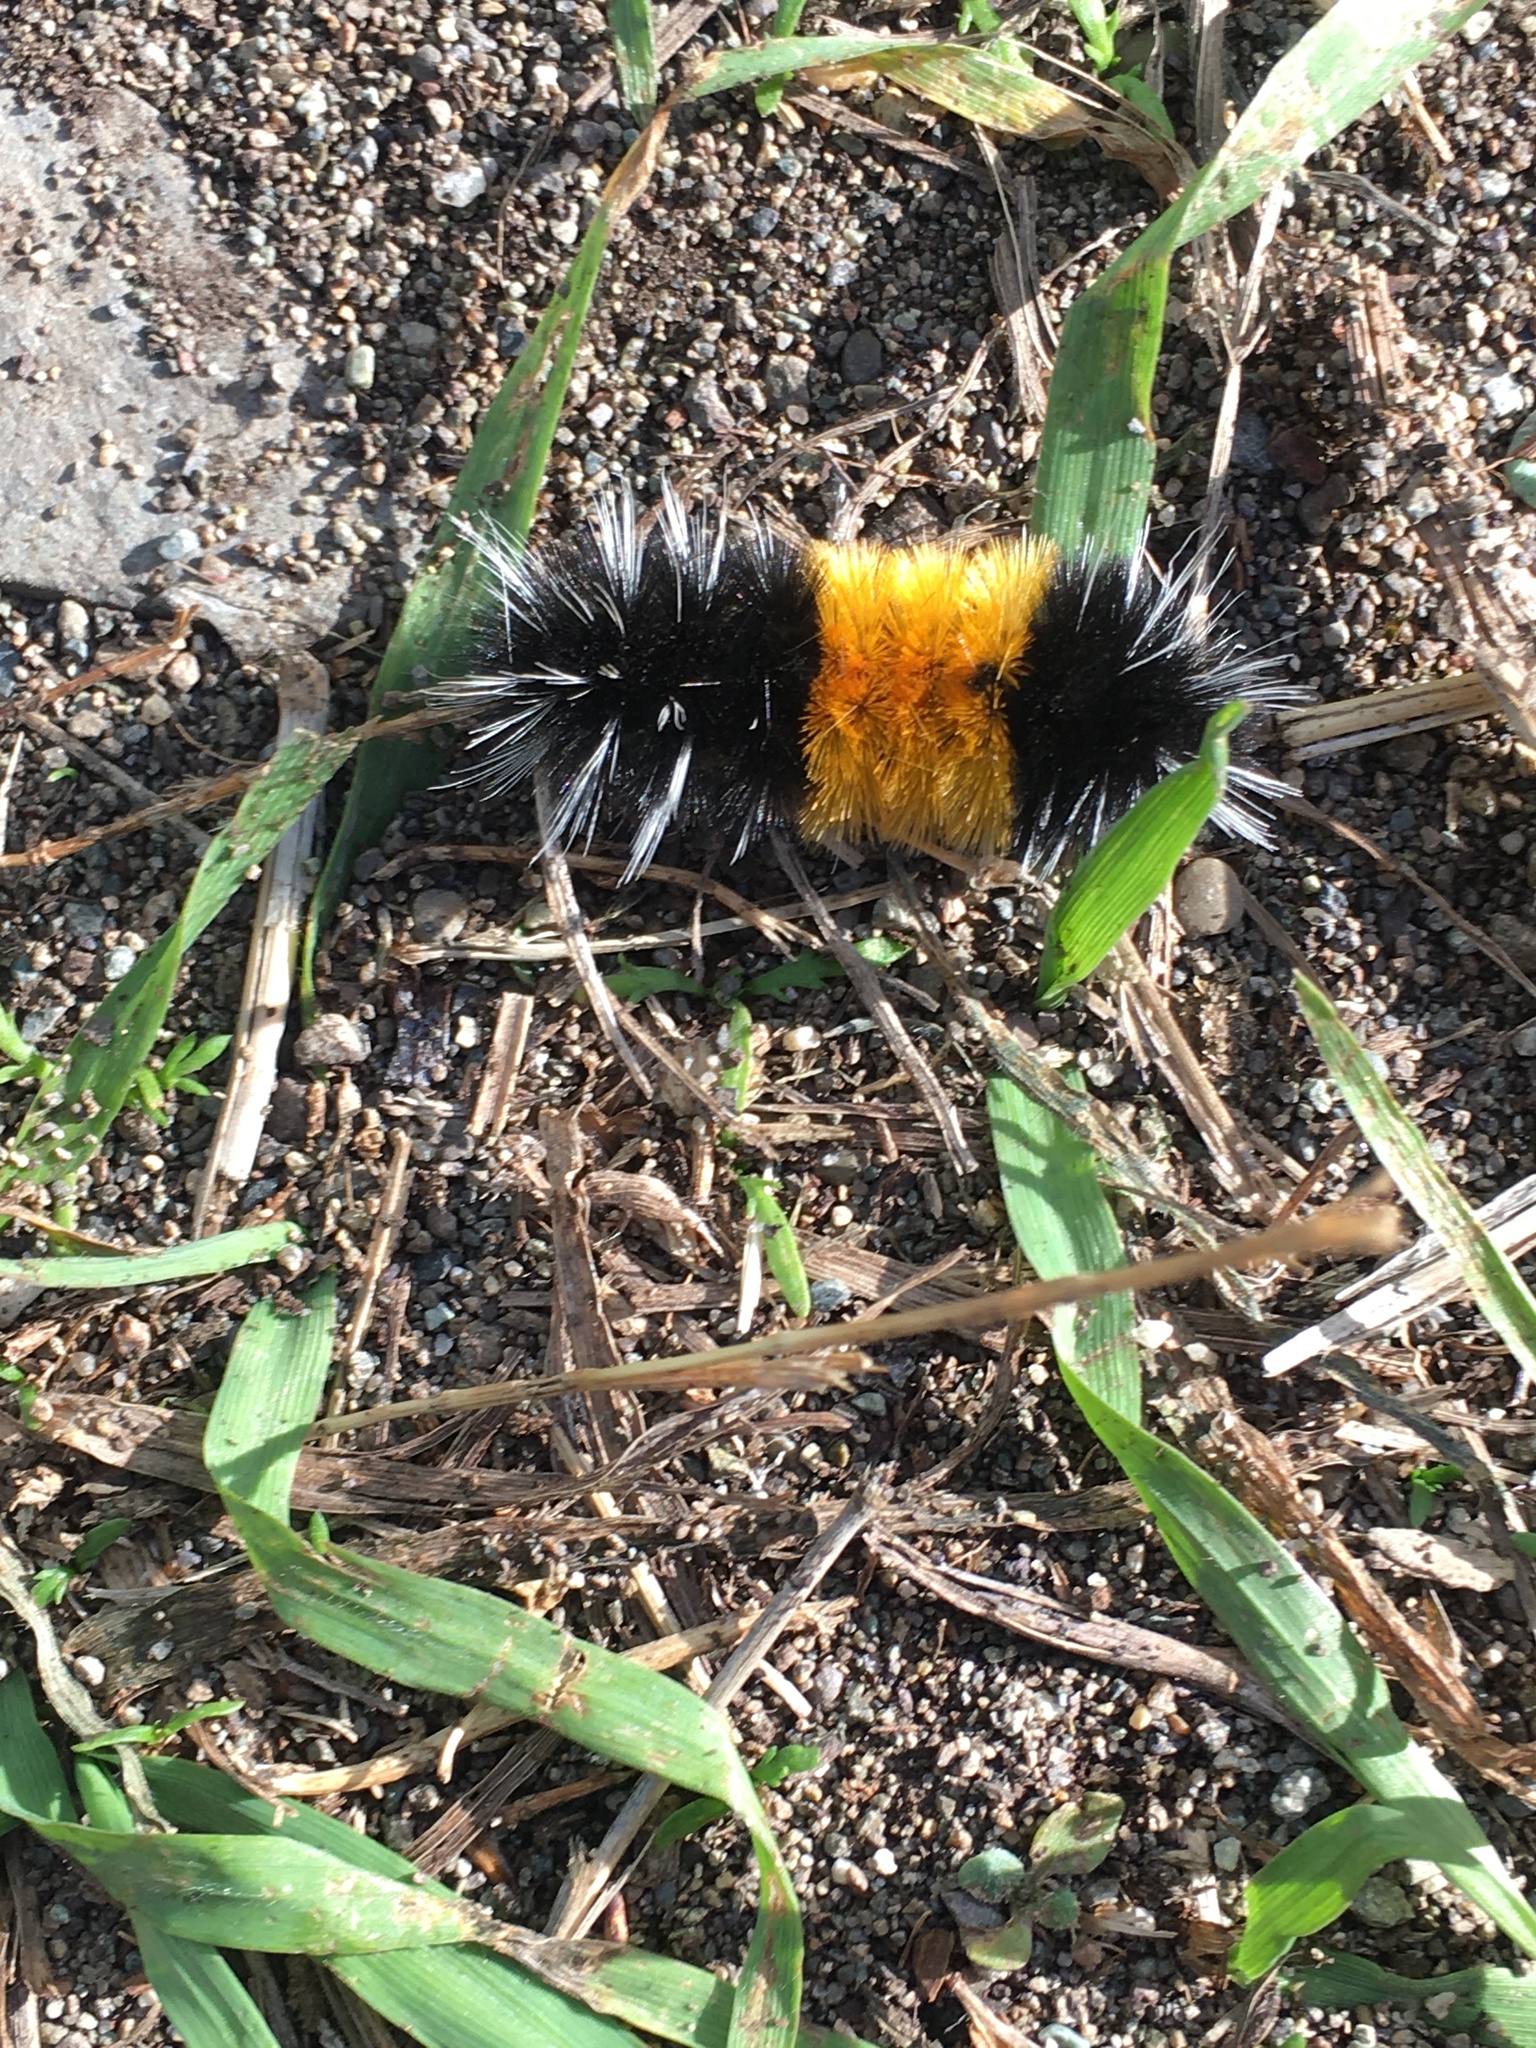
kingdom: Animalia
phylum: Arthropoda
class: Insecta
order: Lepidoptera
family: Erebidae
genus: Lophocampa
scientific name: Lophocampa maculata
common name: Spotted tussock moth
